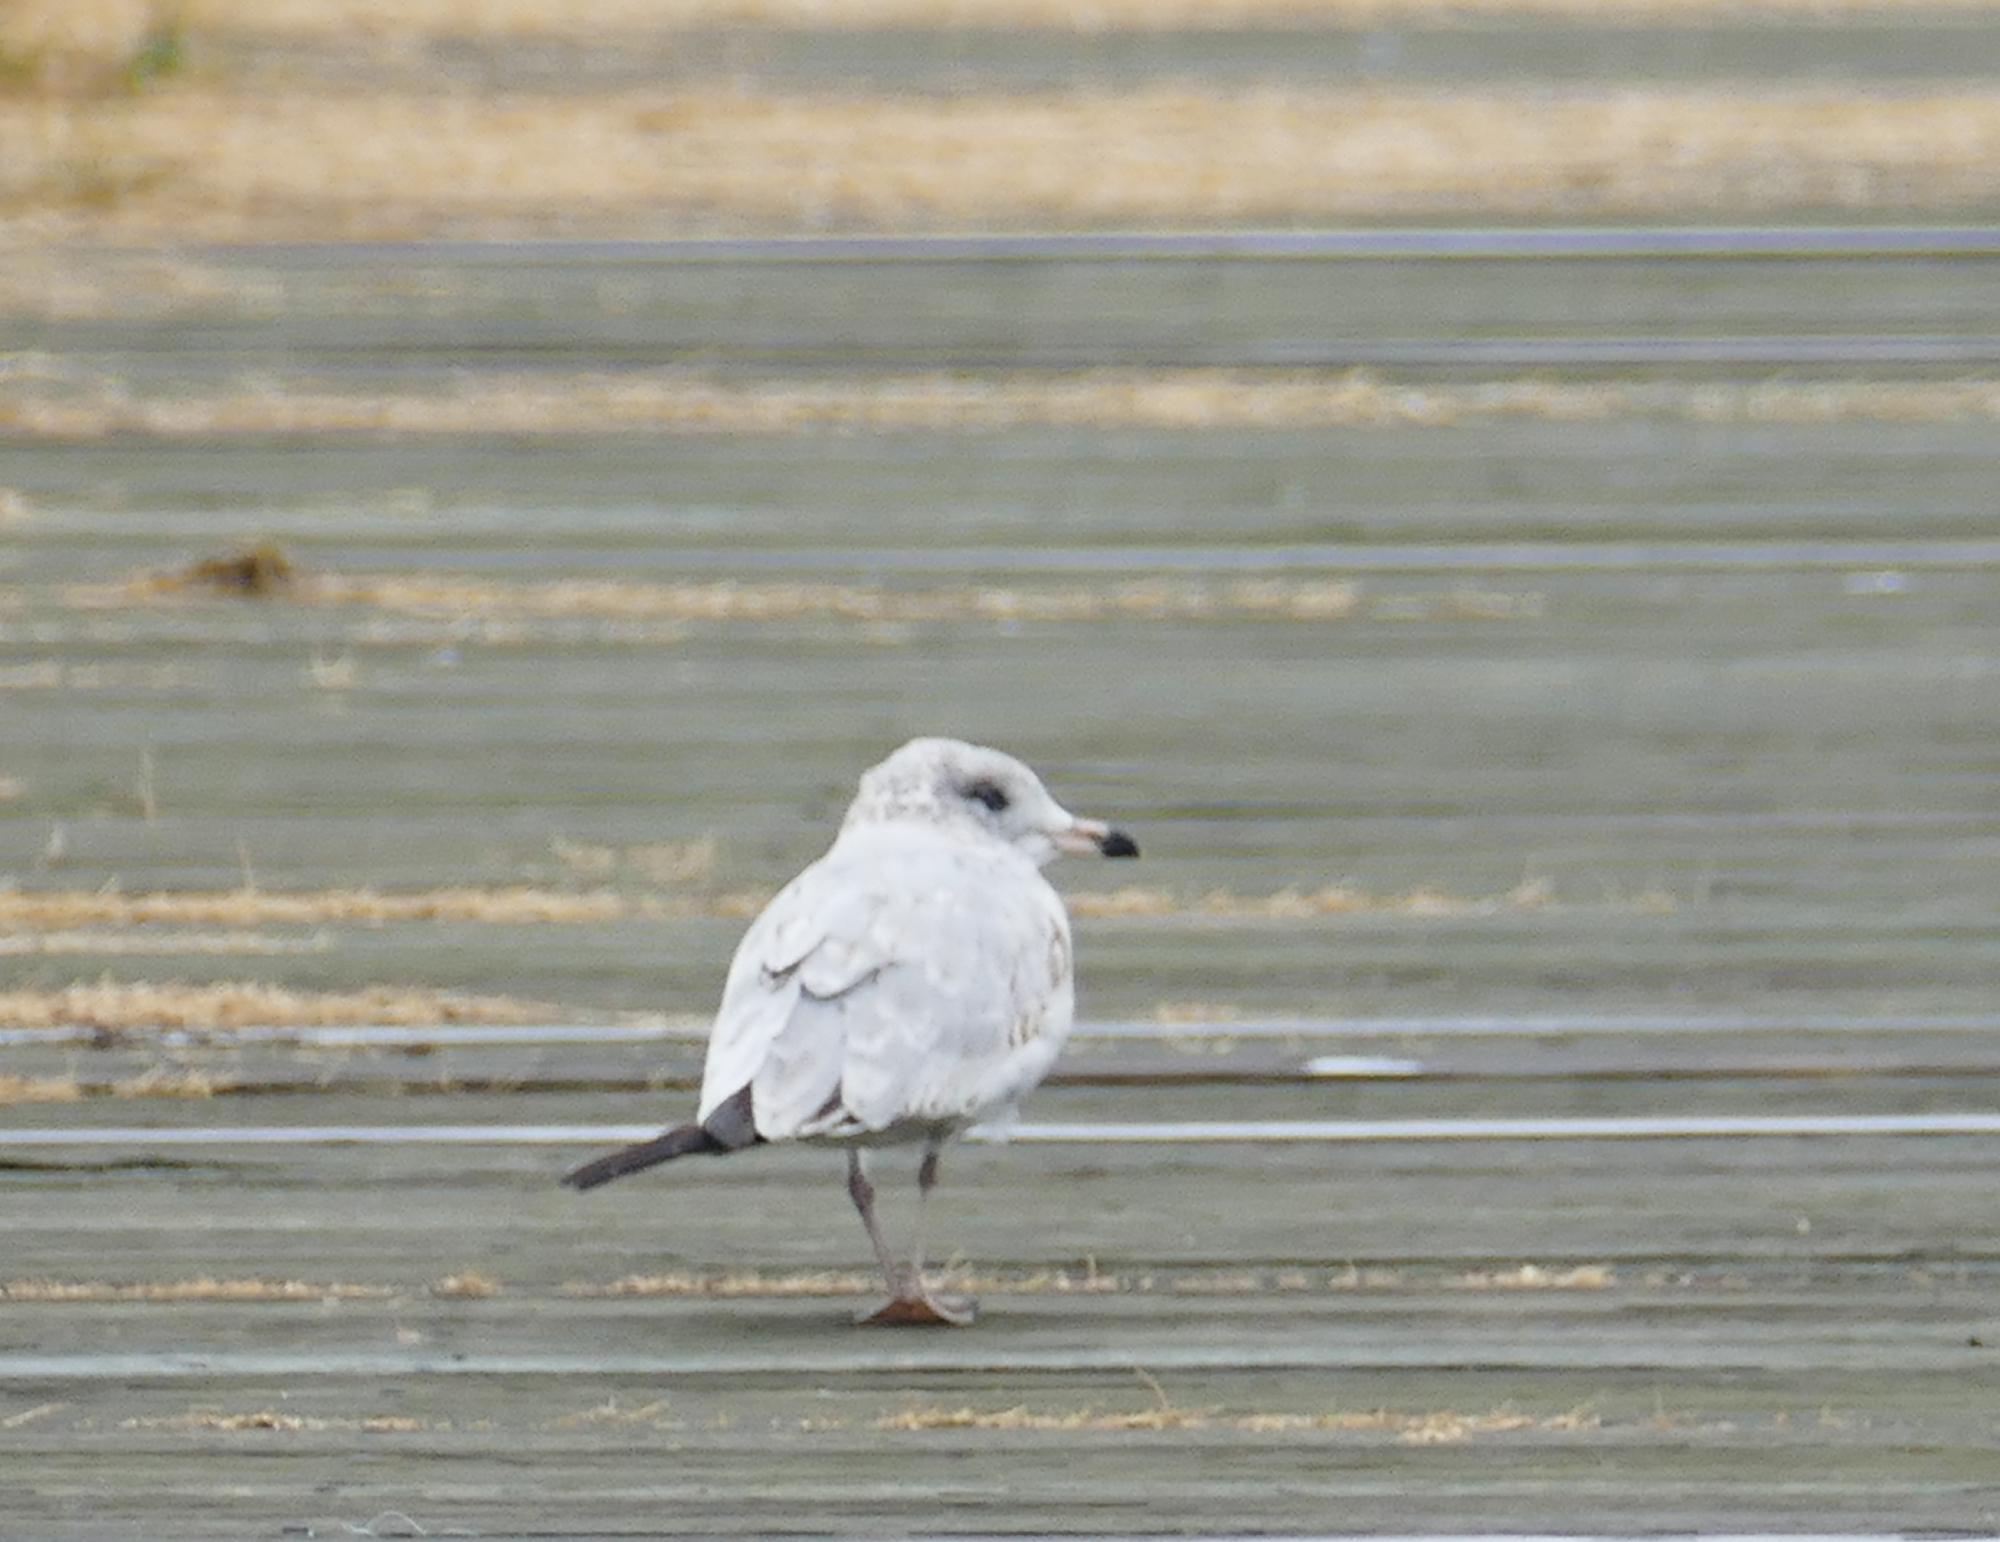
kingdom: Animalia
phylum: Chordata
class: Aves
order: Charadriiformes
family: Laridae
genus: Larus
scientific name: Larus delawarensis
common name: Ring-billed gull
